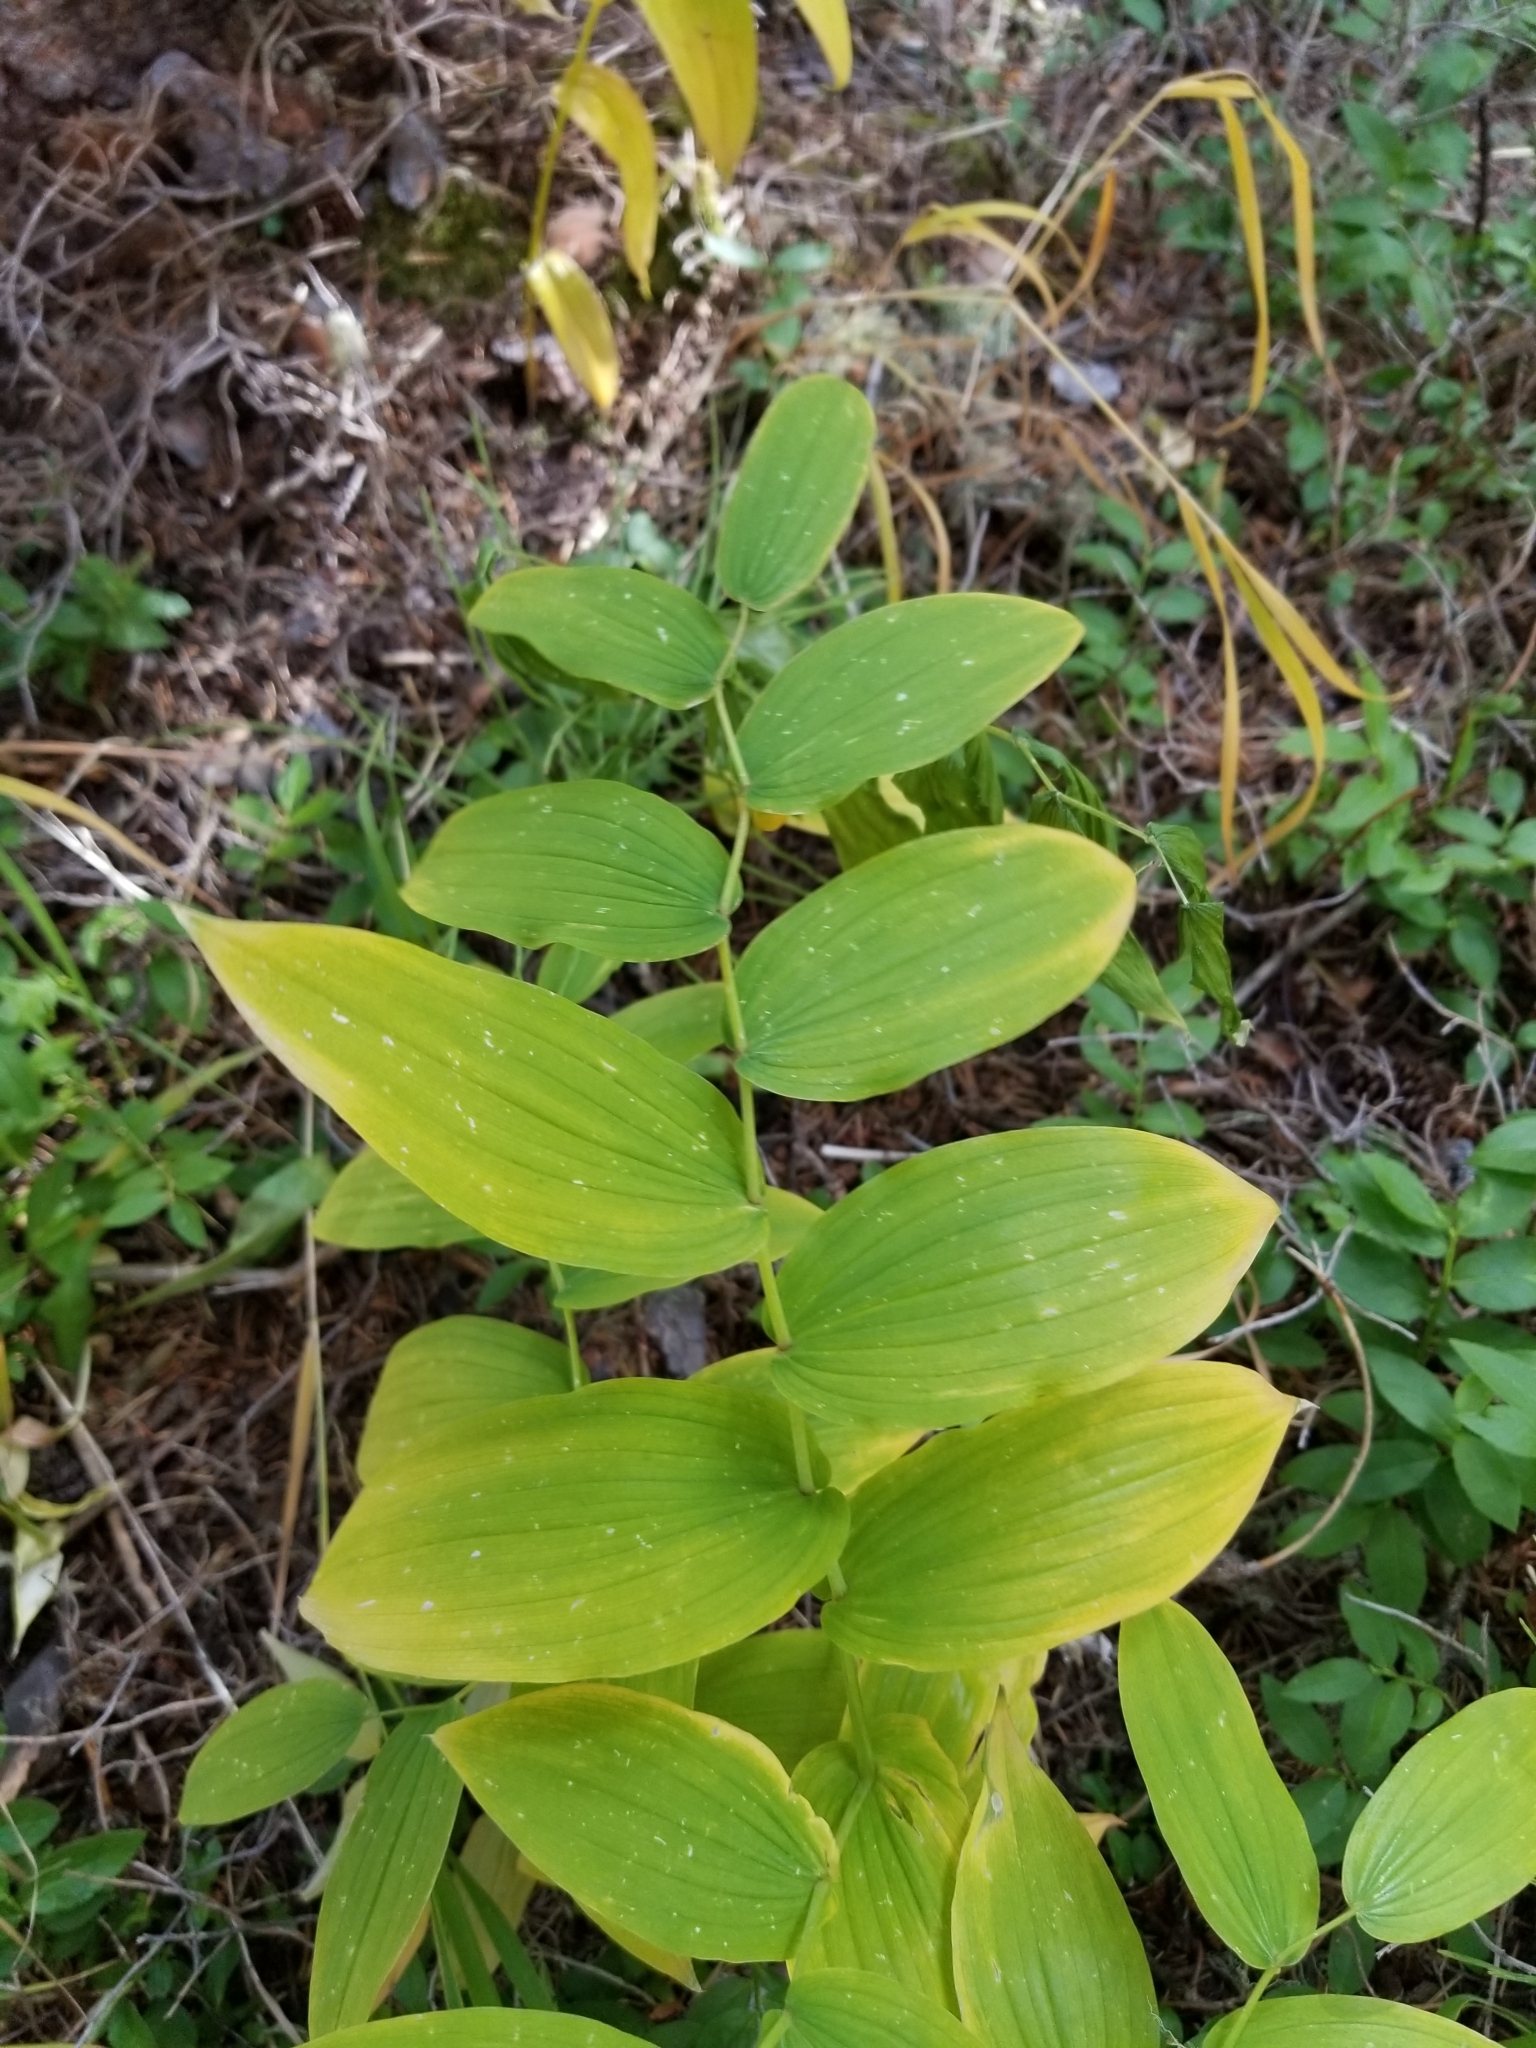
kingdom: Plantae
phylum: Tracheophyta
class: Liliopsida
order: Liliales
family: Liliaceae
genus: Streptopus
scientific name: Streptopus amplexifolius
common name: Clasp twisted stalk
